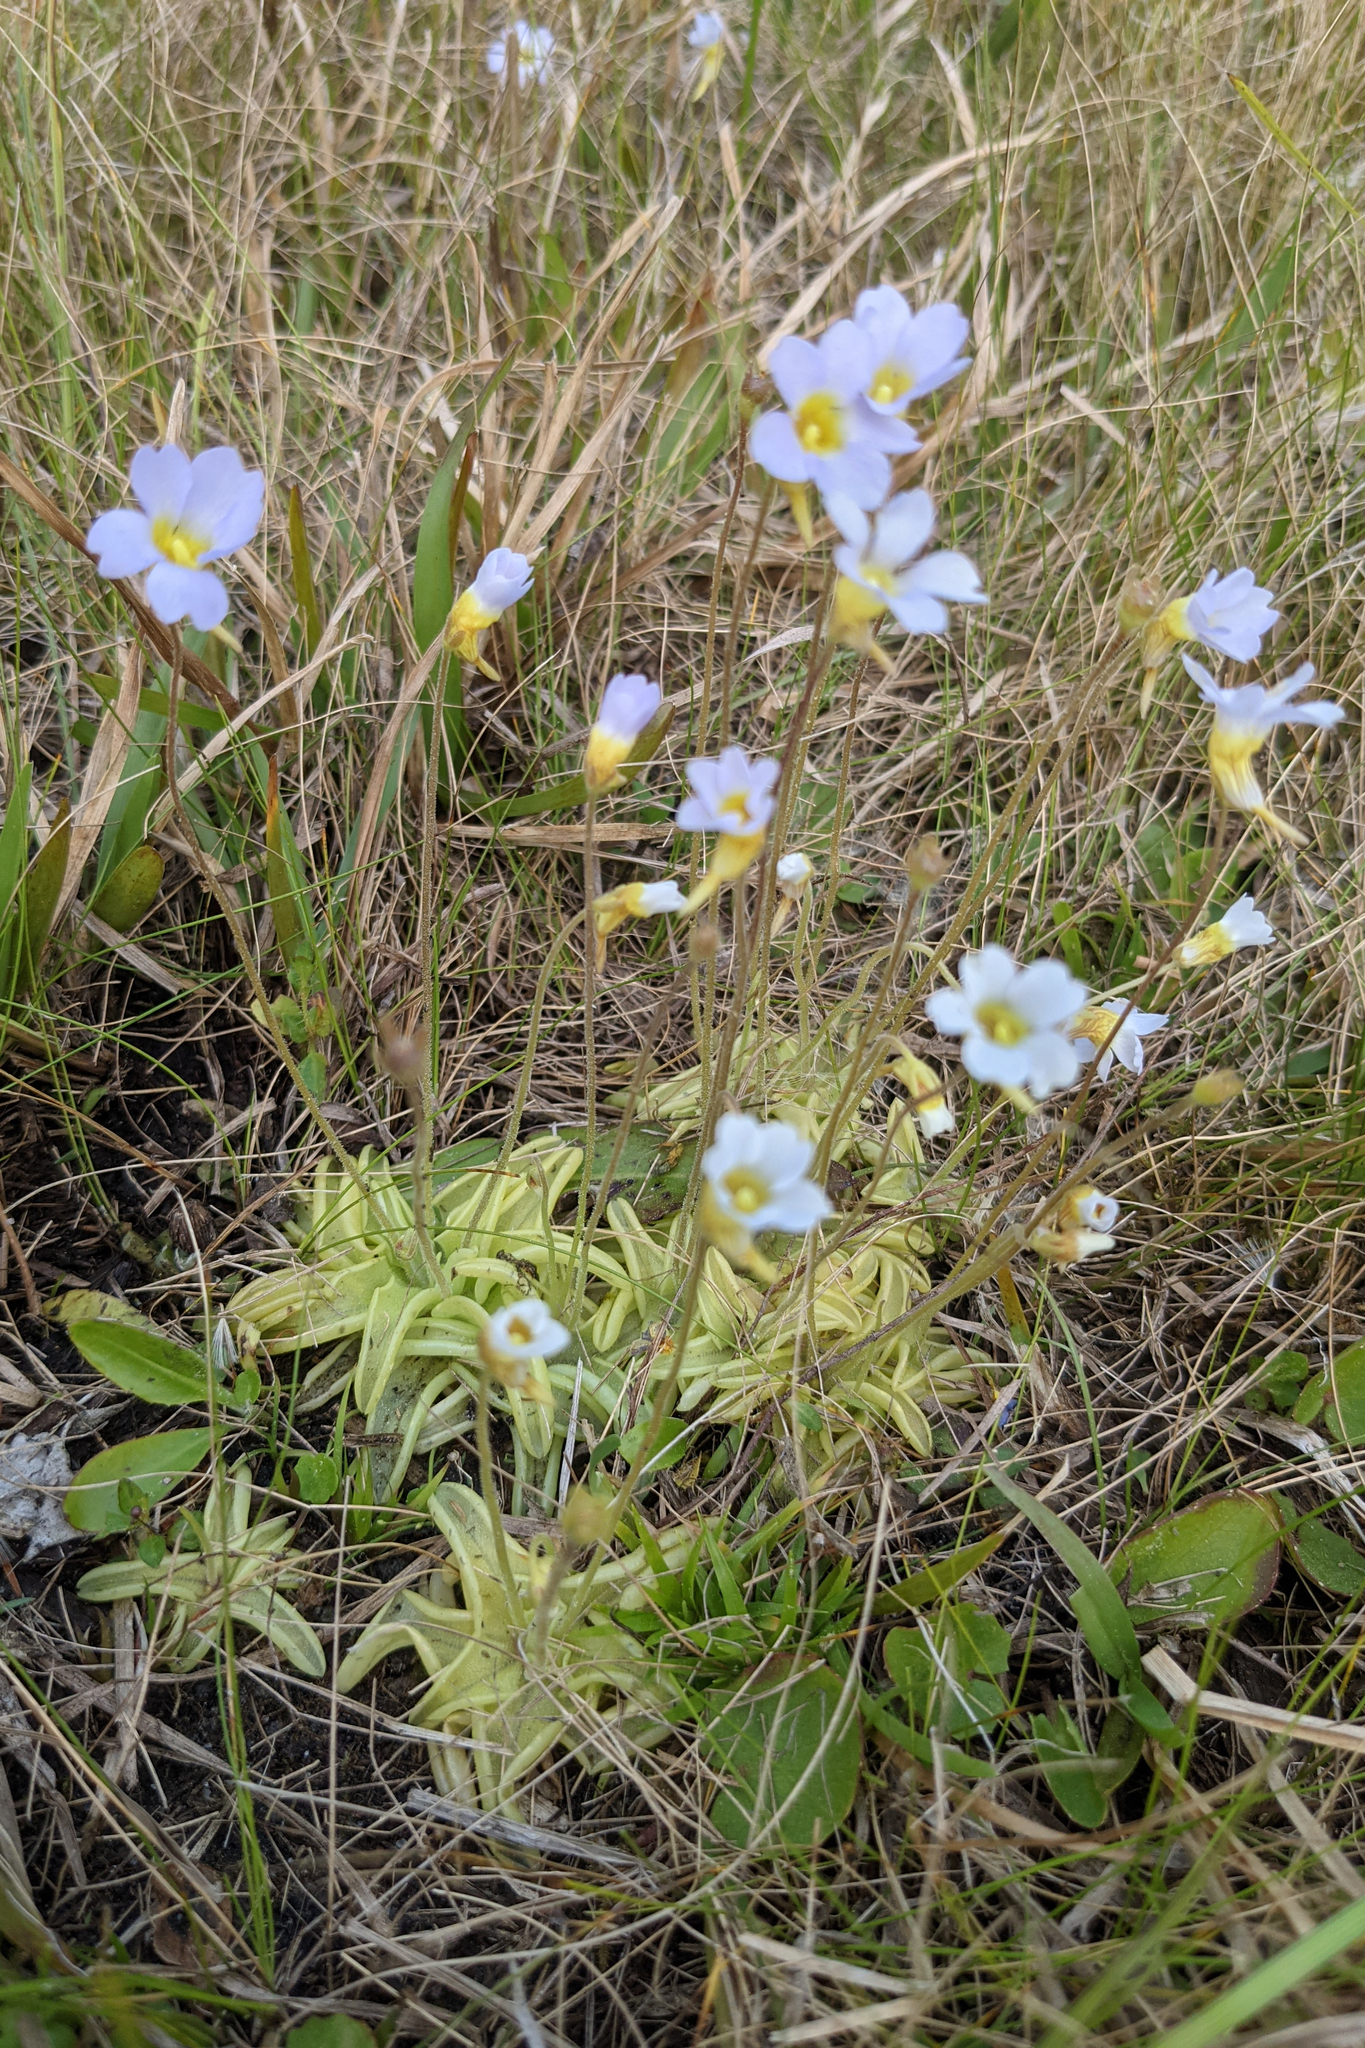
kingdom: Plantae
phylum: Tracheophyta
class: Magnoliopsida
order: Lamiales
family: Lentibulariaceae
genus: Pinguicula
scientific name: Pinguicula pumila
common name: Small butterwort
